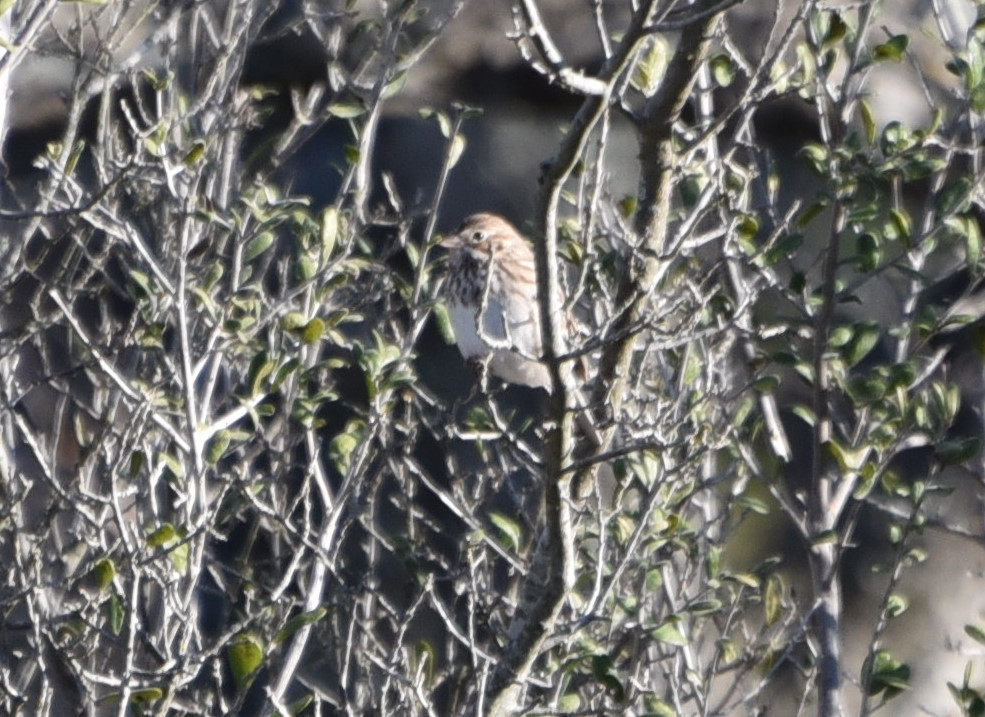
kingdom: Animalia
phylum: Chordata
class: Aves
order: Passeriformes
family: Passerellidae
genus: Pooecetes
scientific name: Pooecetes gramineus
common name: Vesper sparrow
